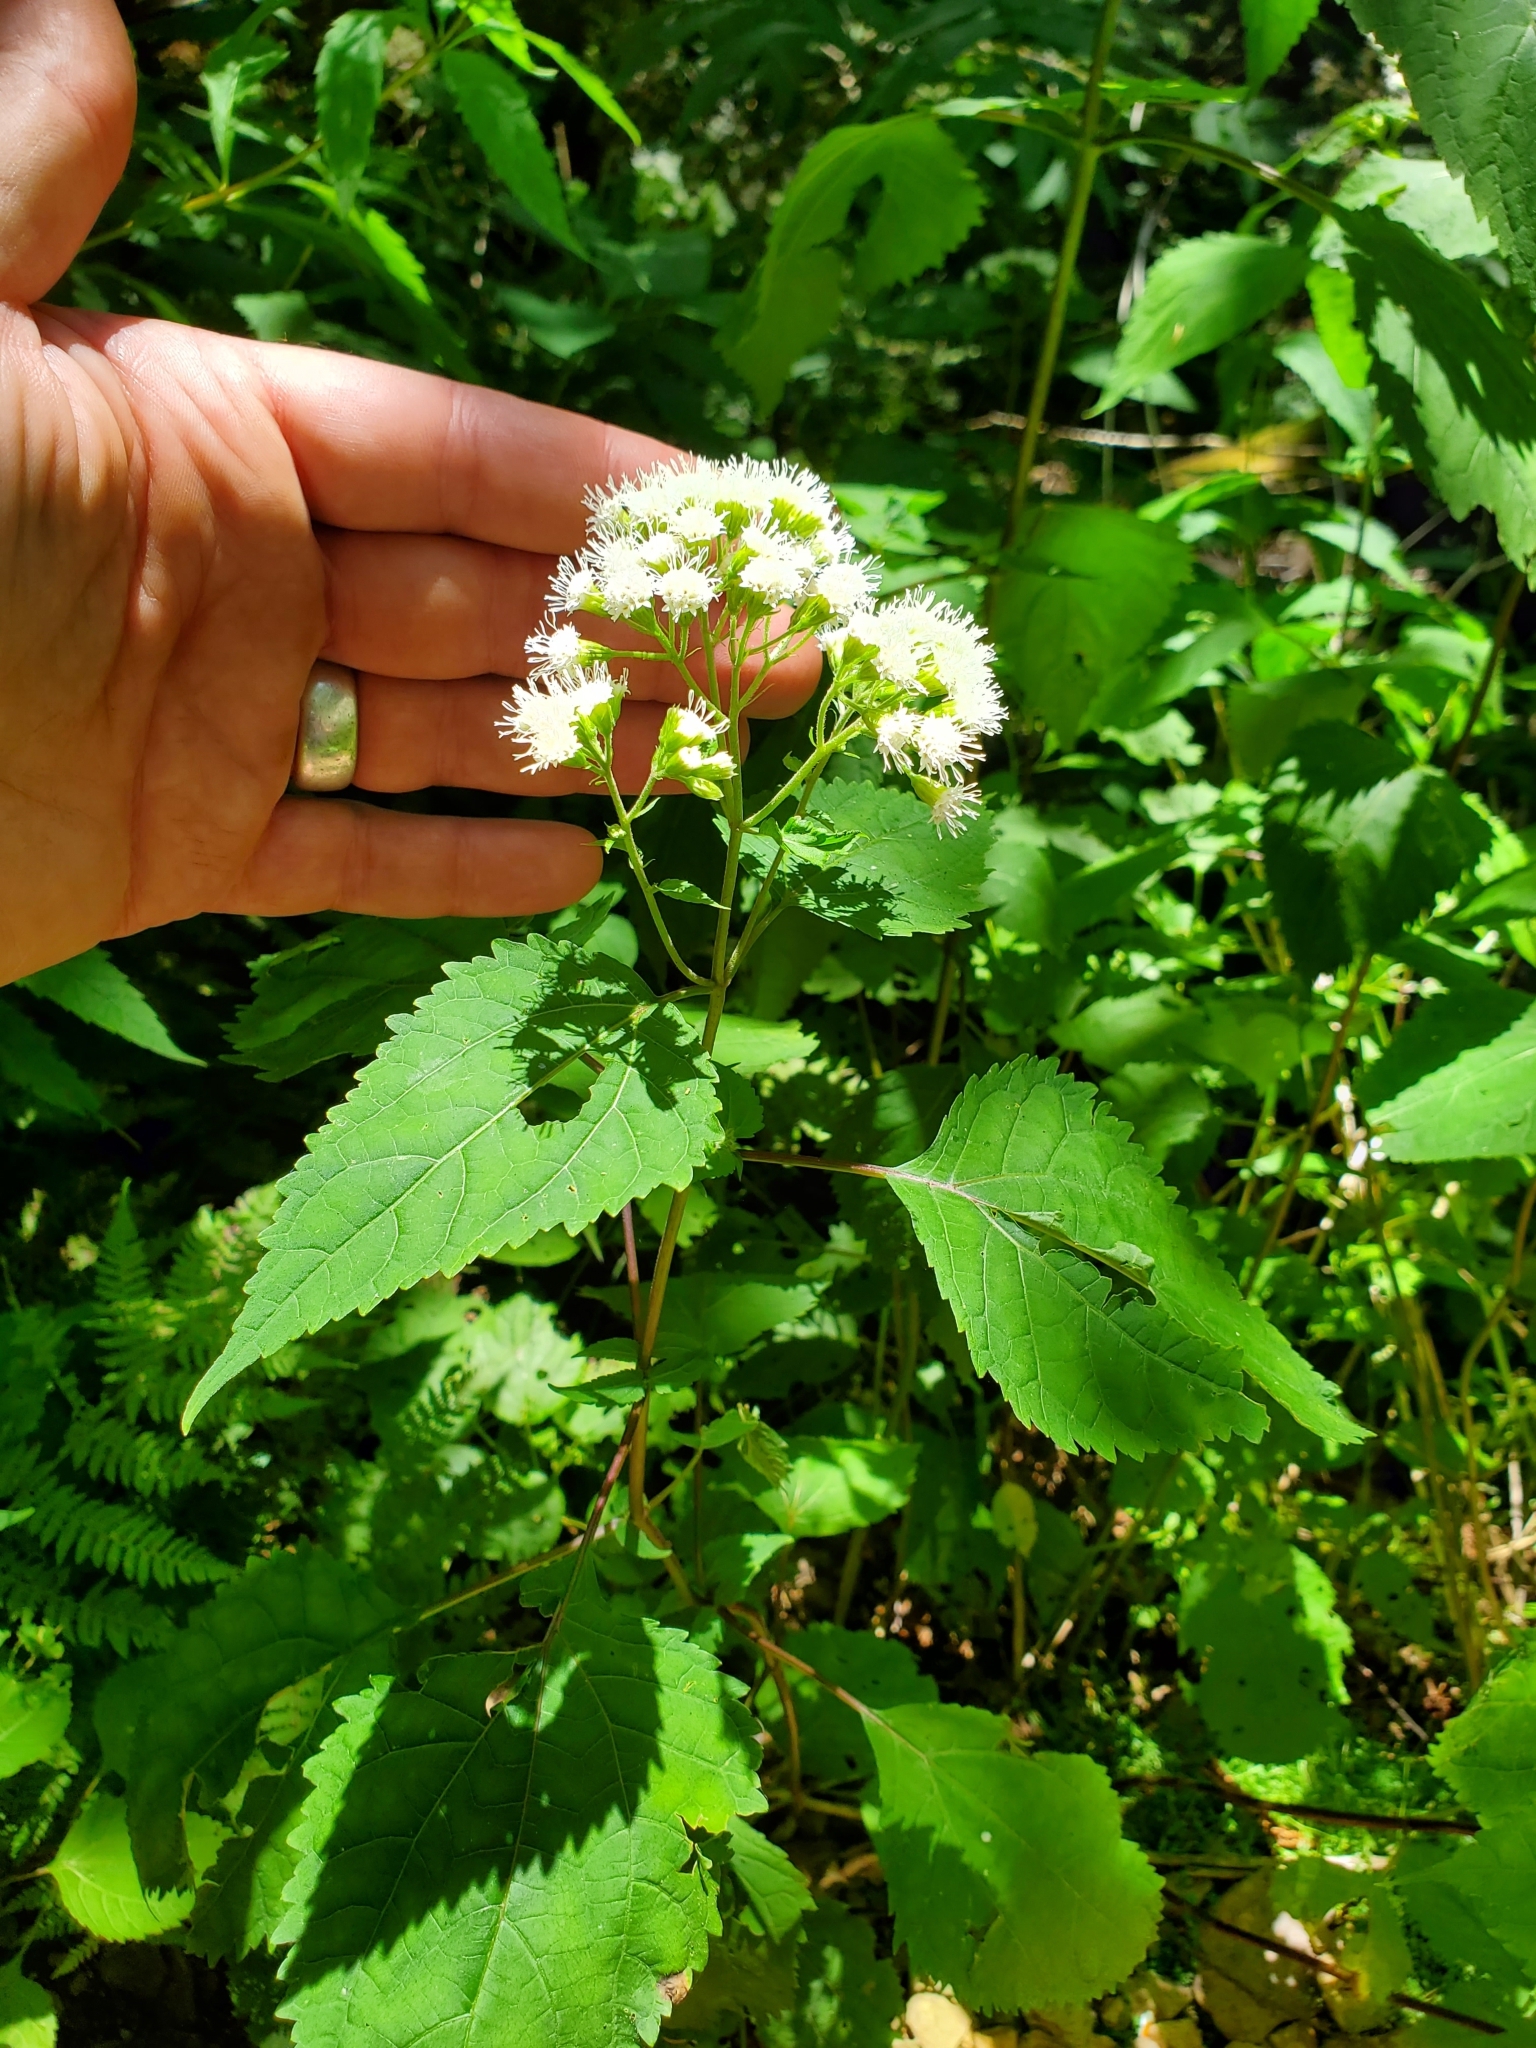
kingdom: Plantae
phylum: Tracheophyta
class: Magnoliopsida
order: Asterales
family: Asteraceae
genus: Ageratina
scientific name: Ageratina altissima
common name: White snakeroot
